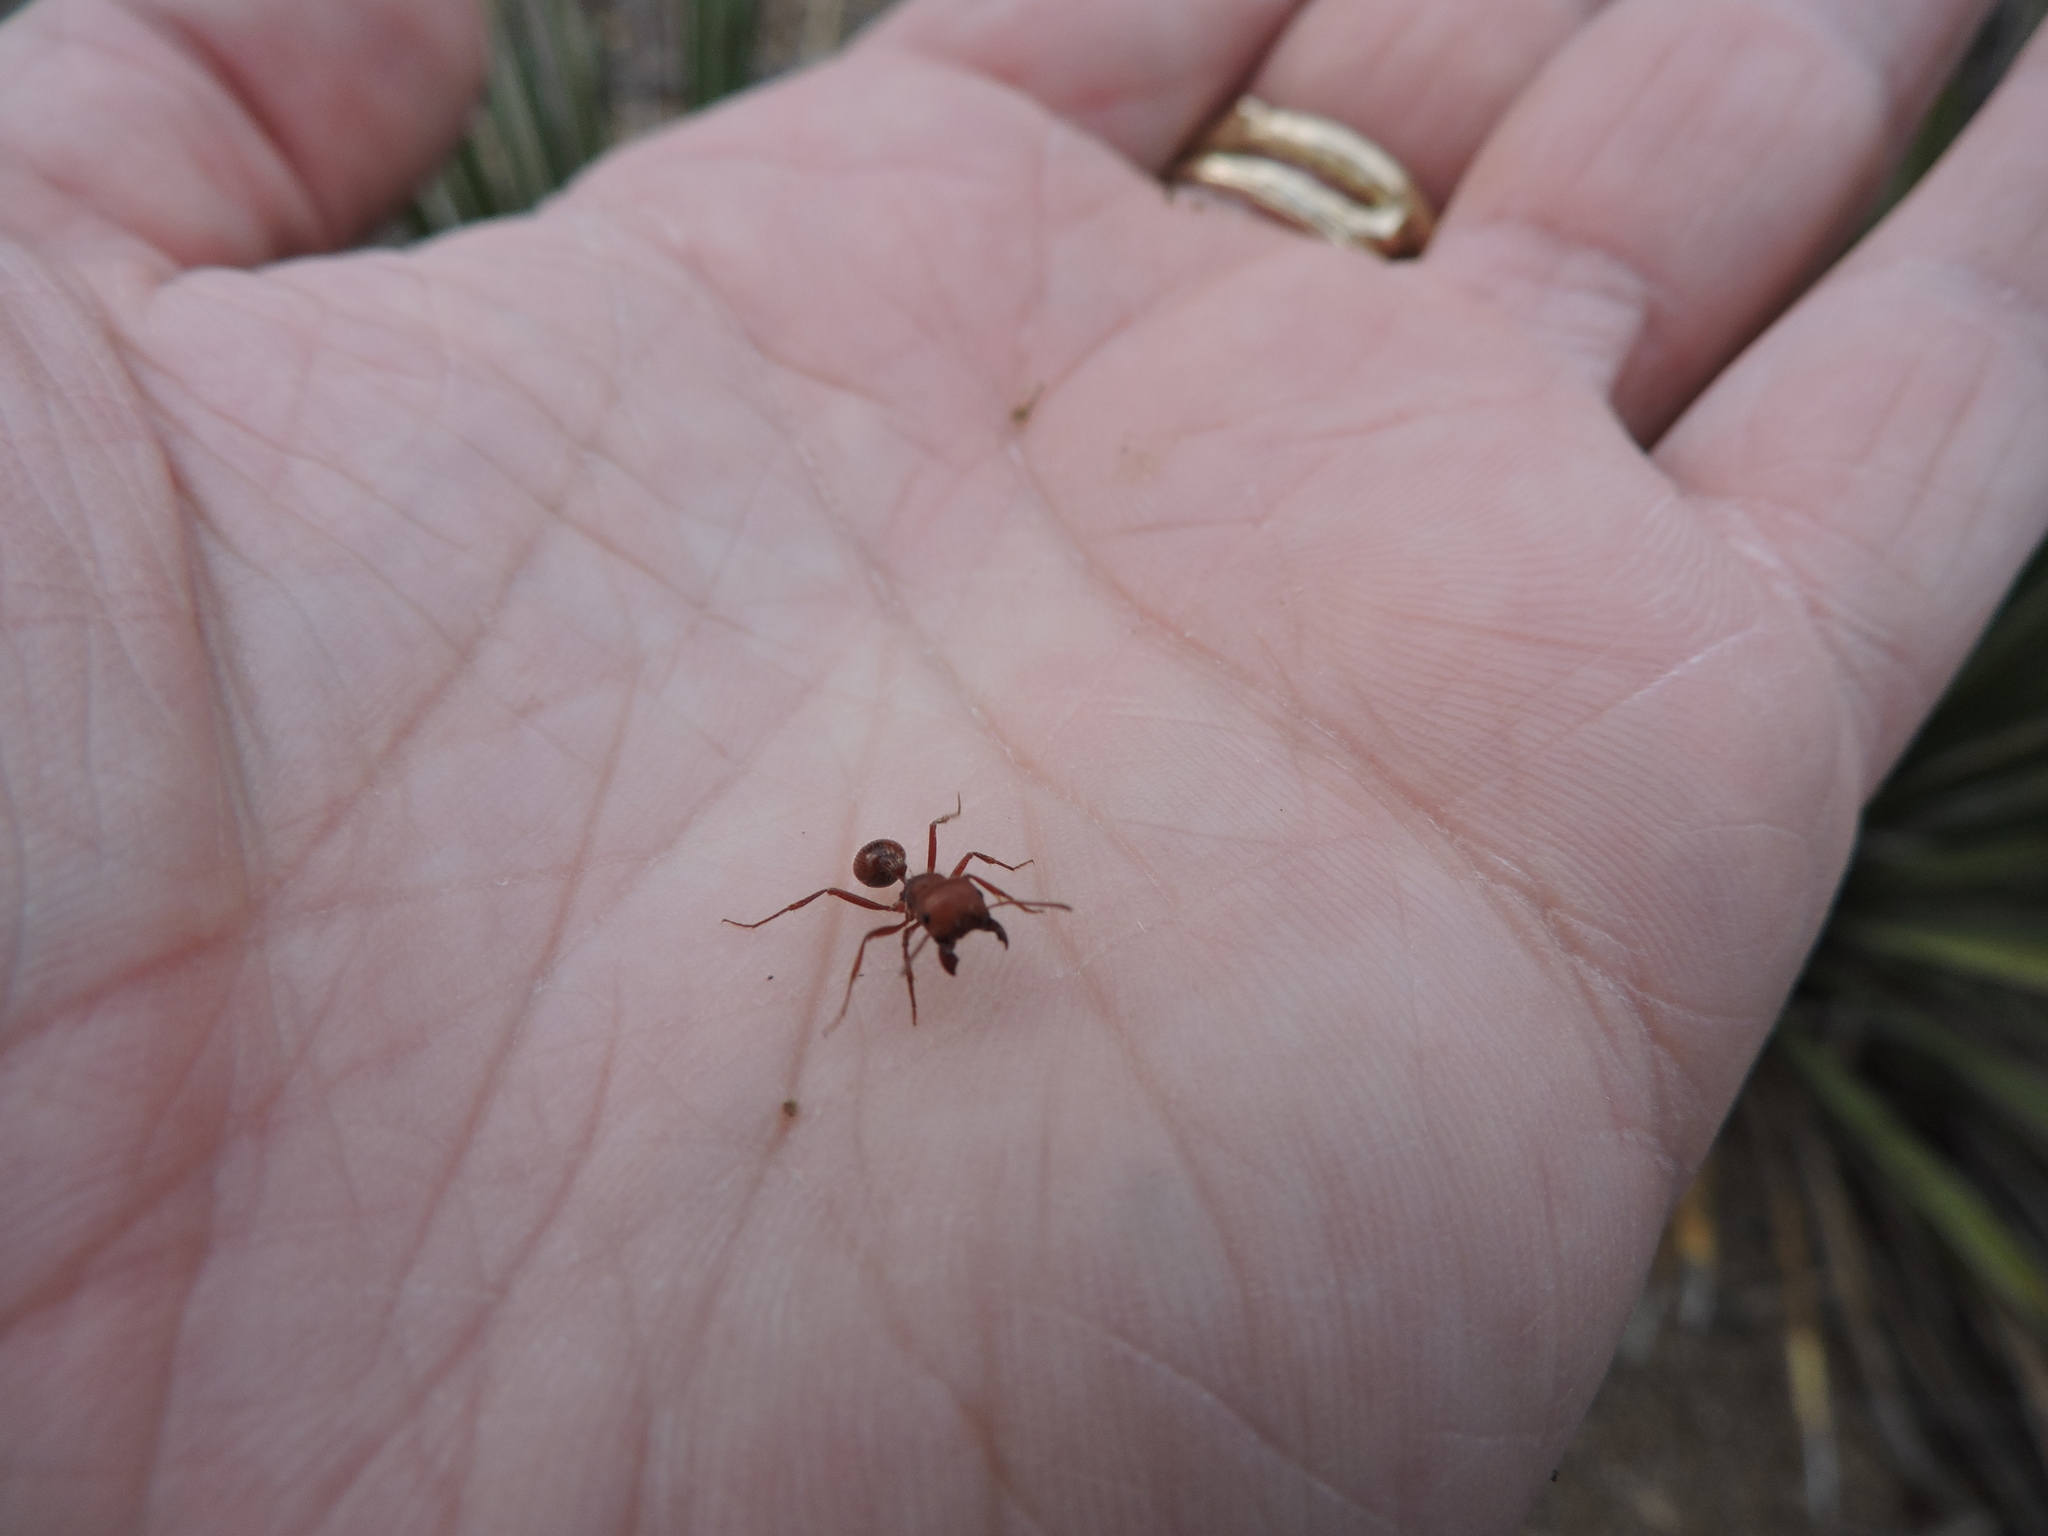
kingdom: Animalia
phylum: Arthropoda
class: Insecta
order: Hymenoptera
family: Formicidae
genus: Pogonomyrmex
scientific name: Pogonomyrmex barbatus
